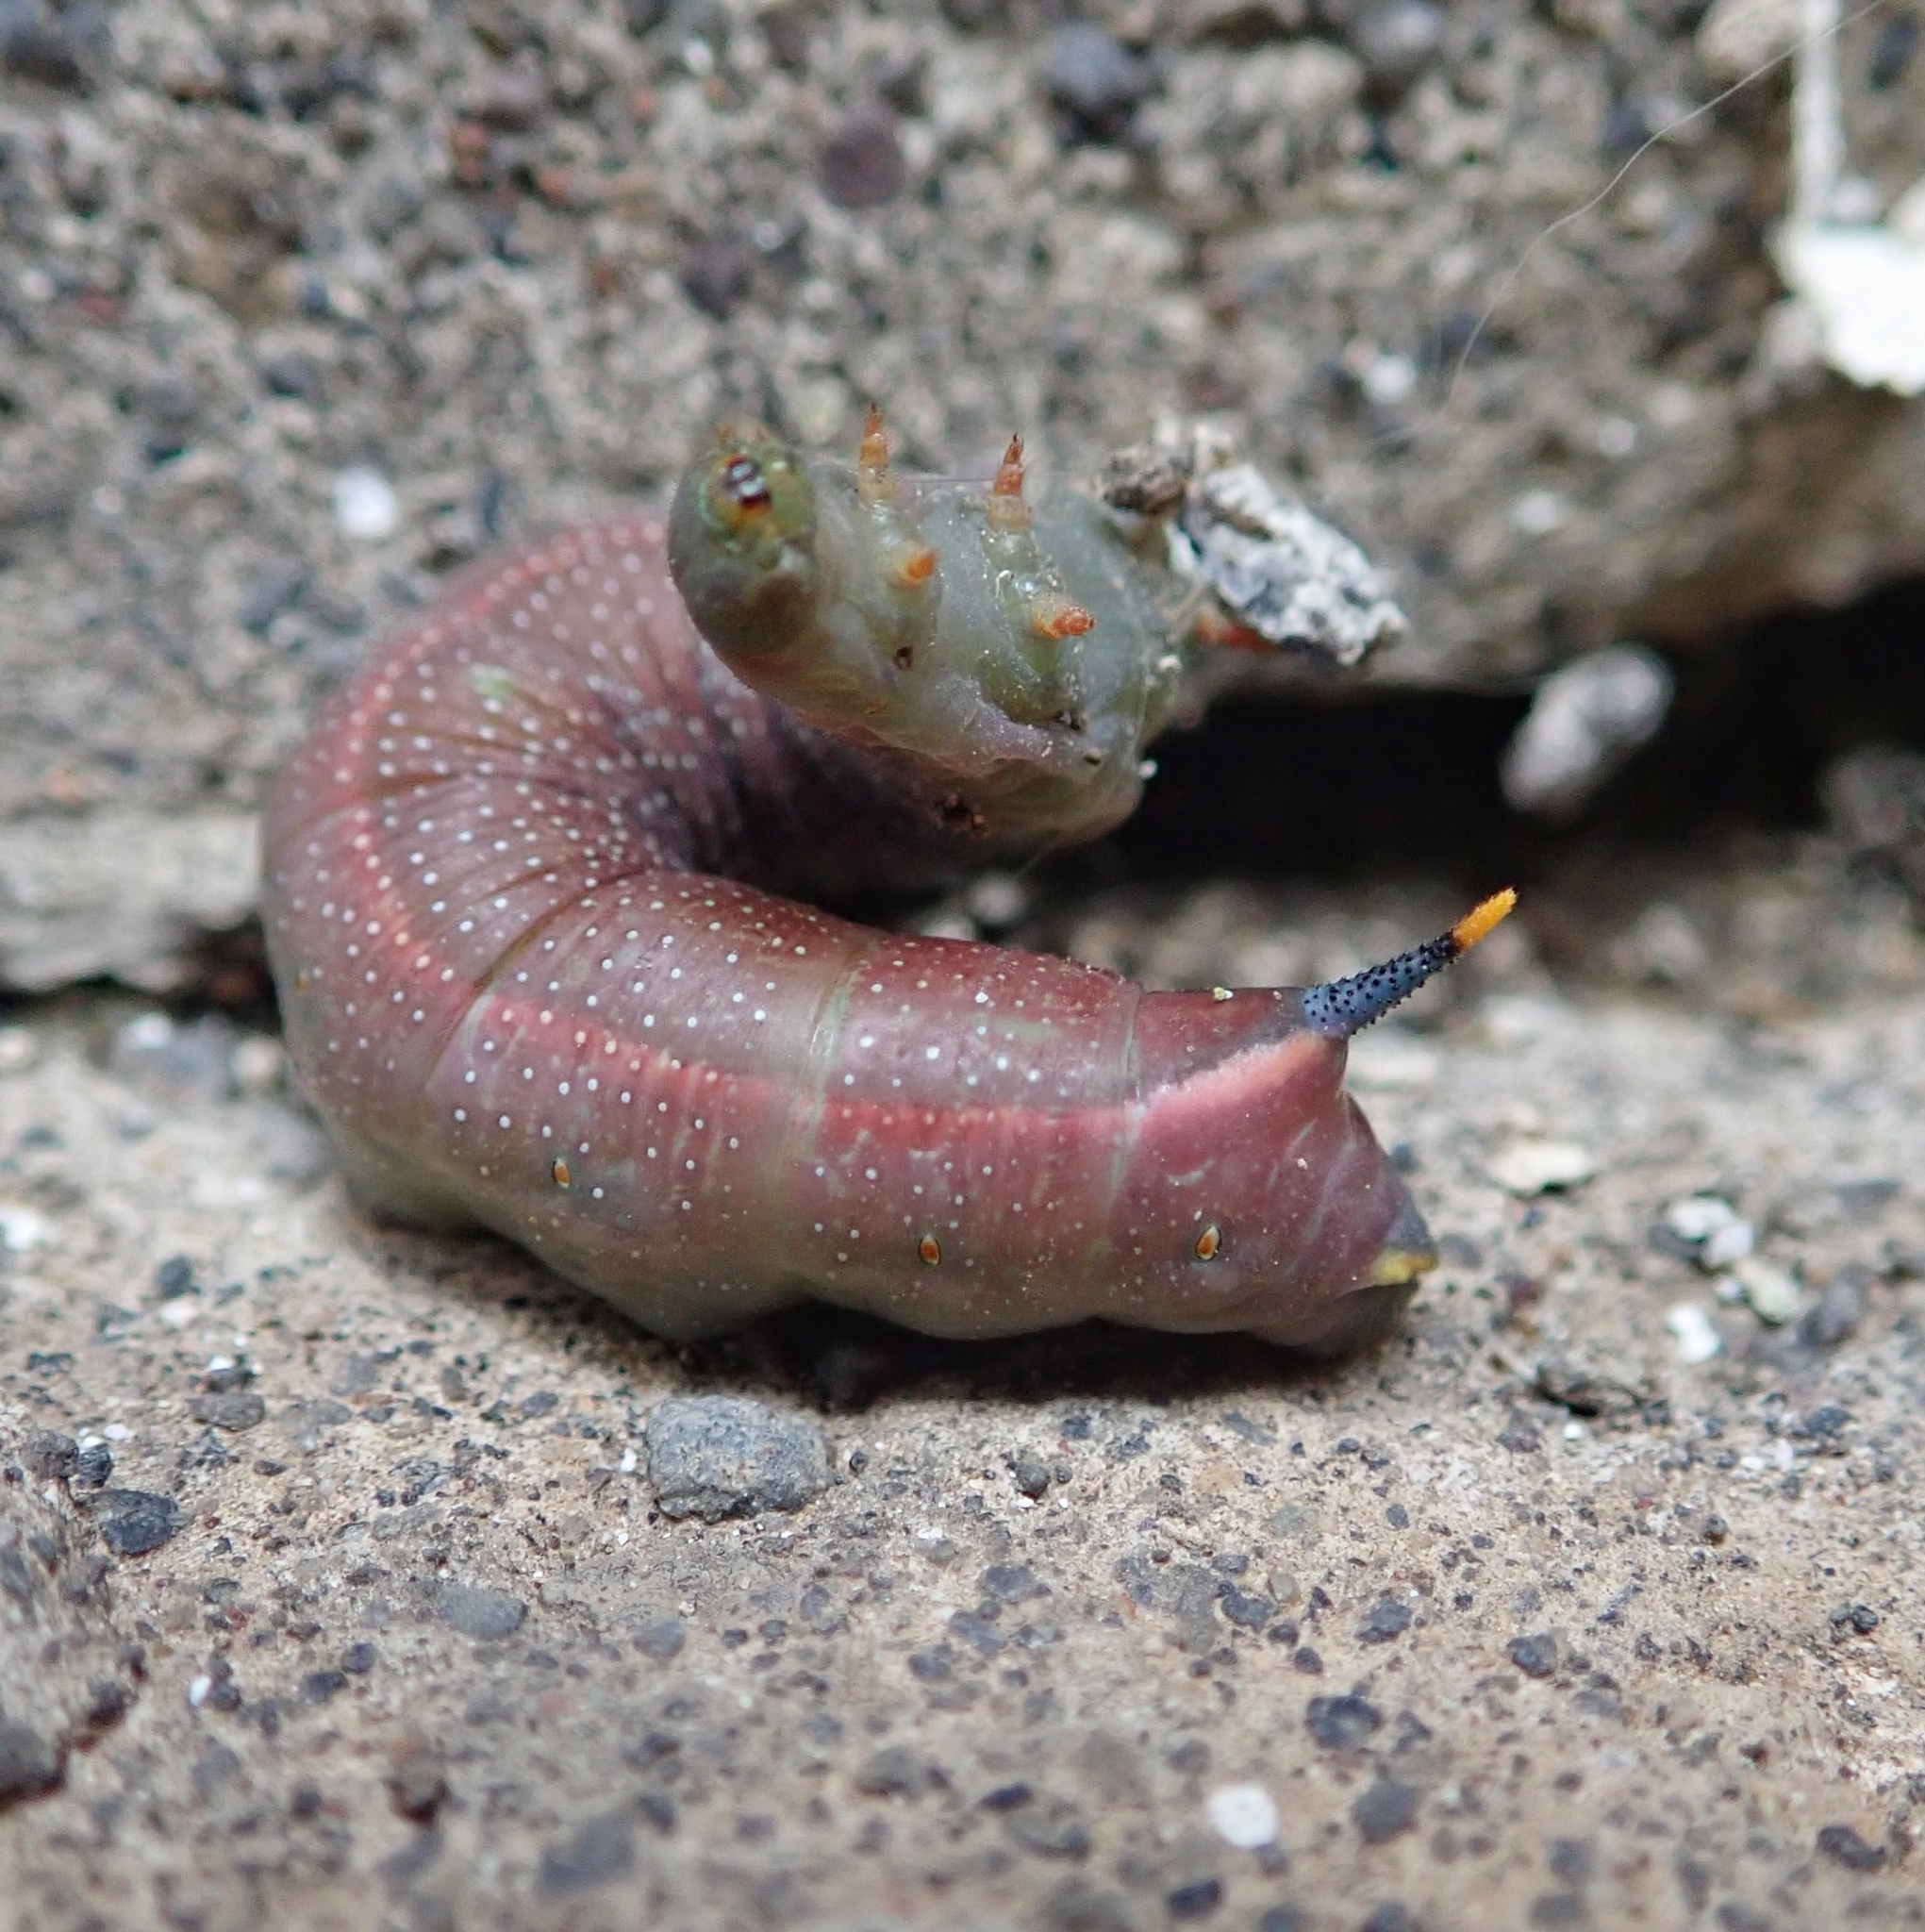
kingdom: Animalia
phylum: Arthropoda
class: Insecta
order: Lepidoptera
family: Sphingidae
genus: Macroglossum
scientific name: Macroglossum stellatarum
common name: Humming-bird hawk-moth
